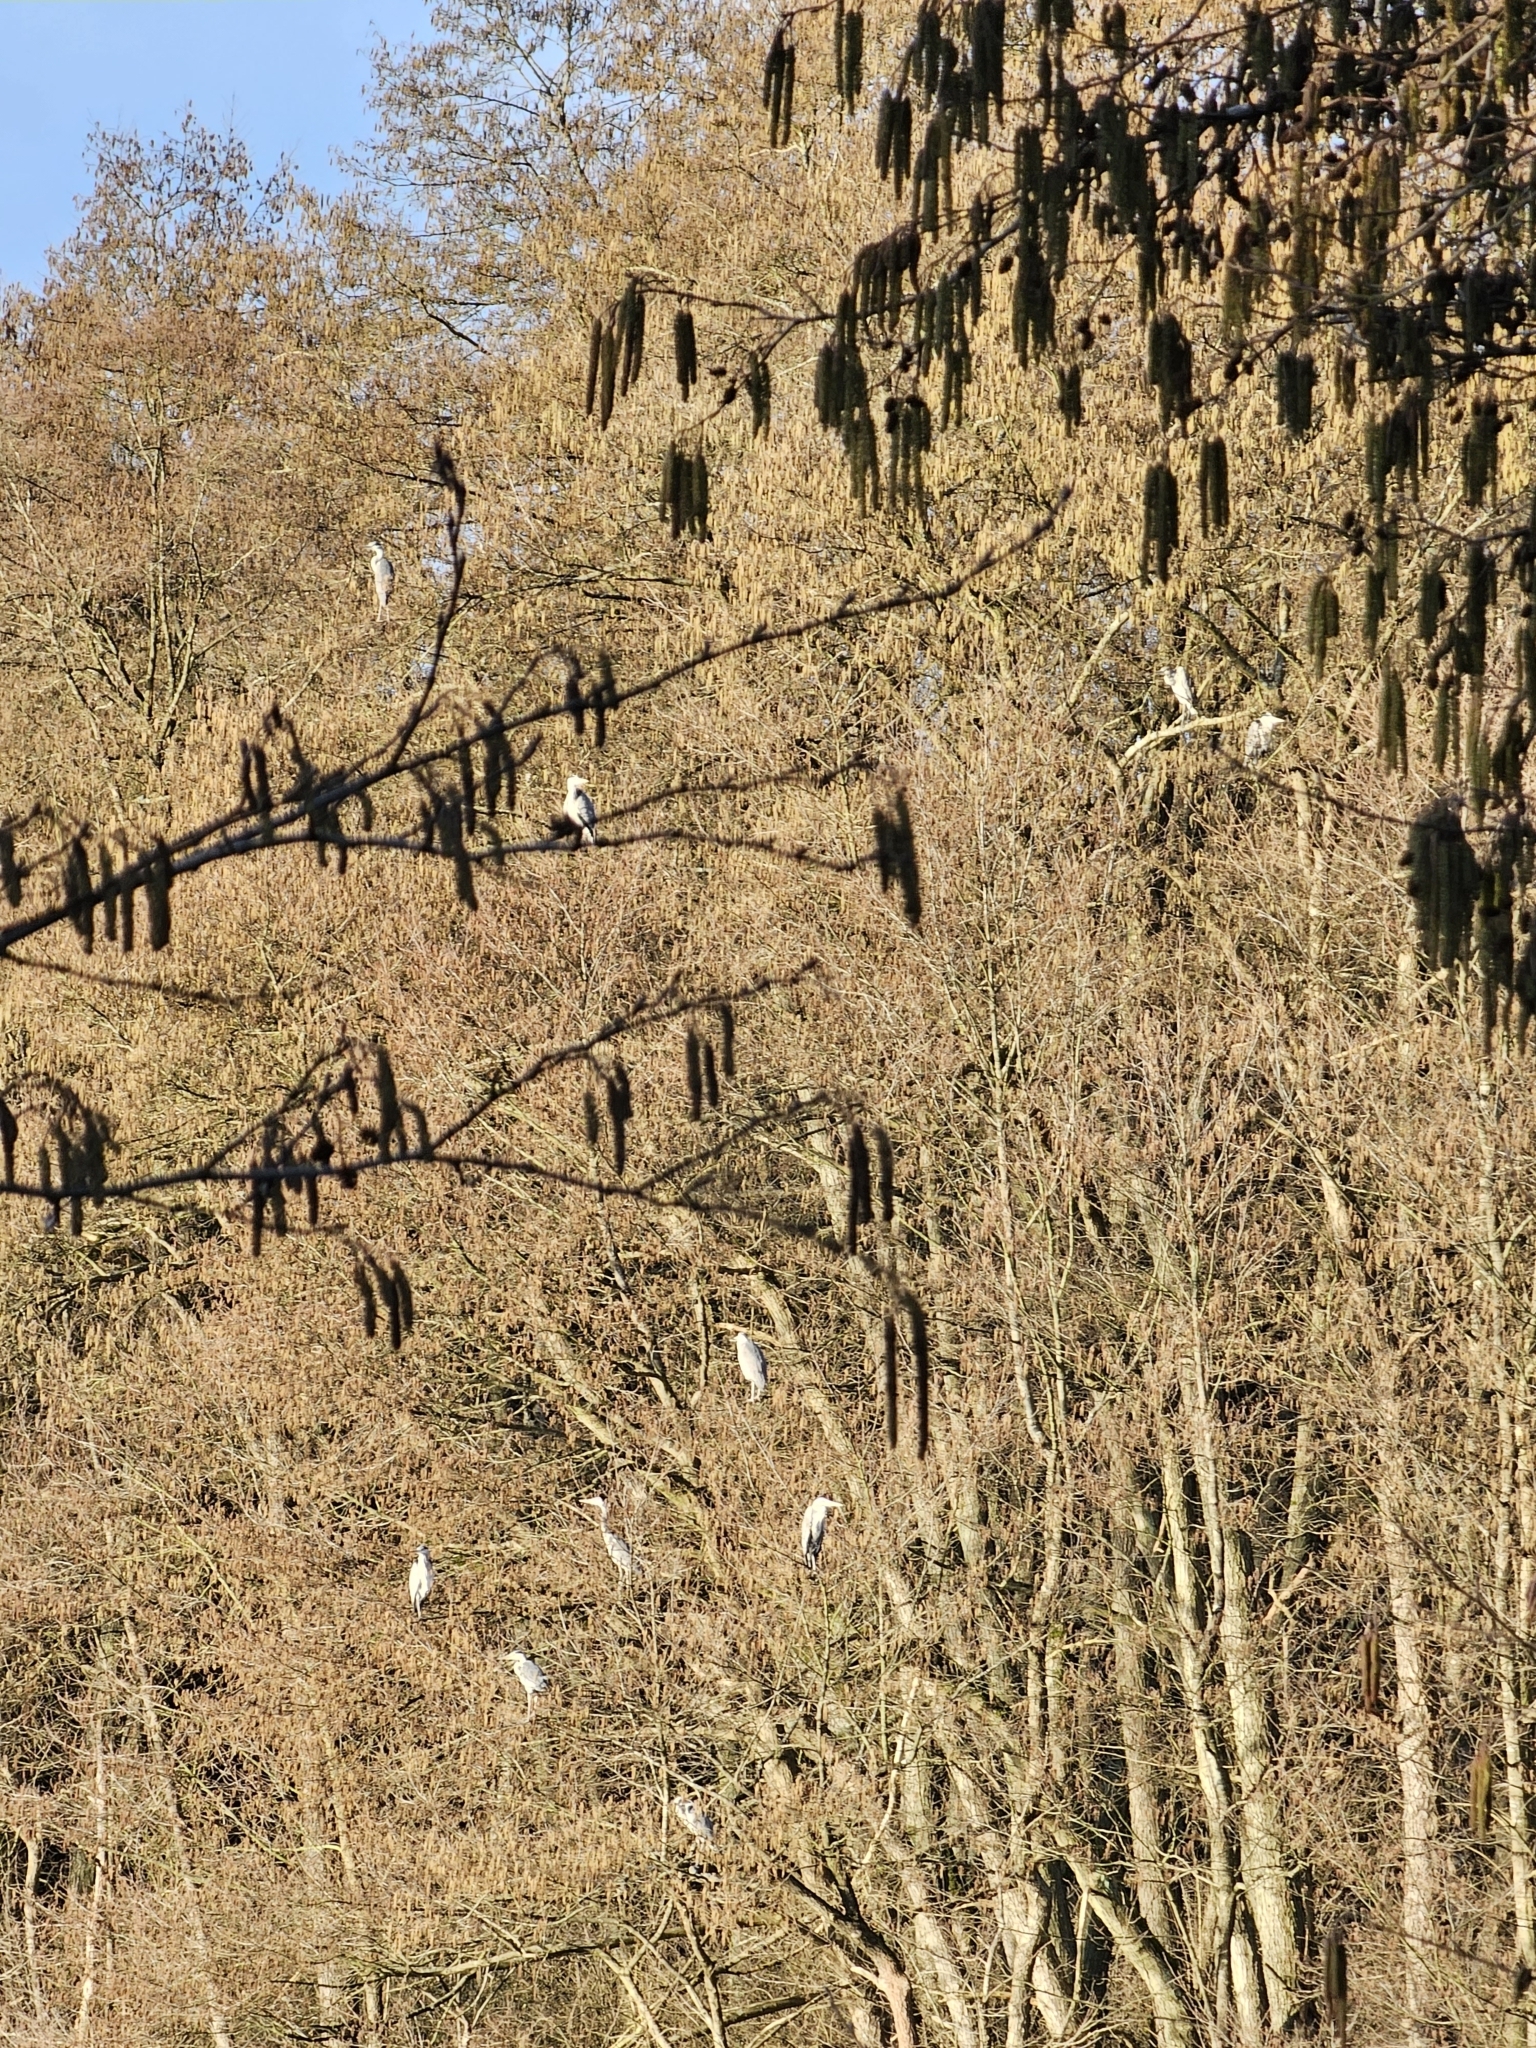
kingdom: Animalia
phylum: Chordata
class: Aves
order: Pelecaniformes
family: Ardeidae
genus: Ardea
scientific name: Ardea cinerea
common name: Grey heron
